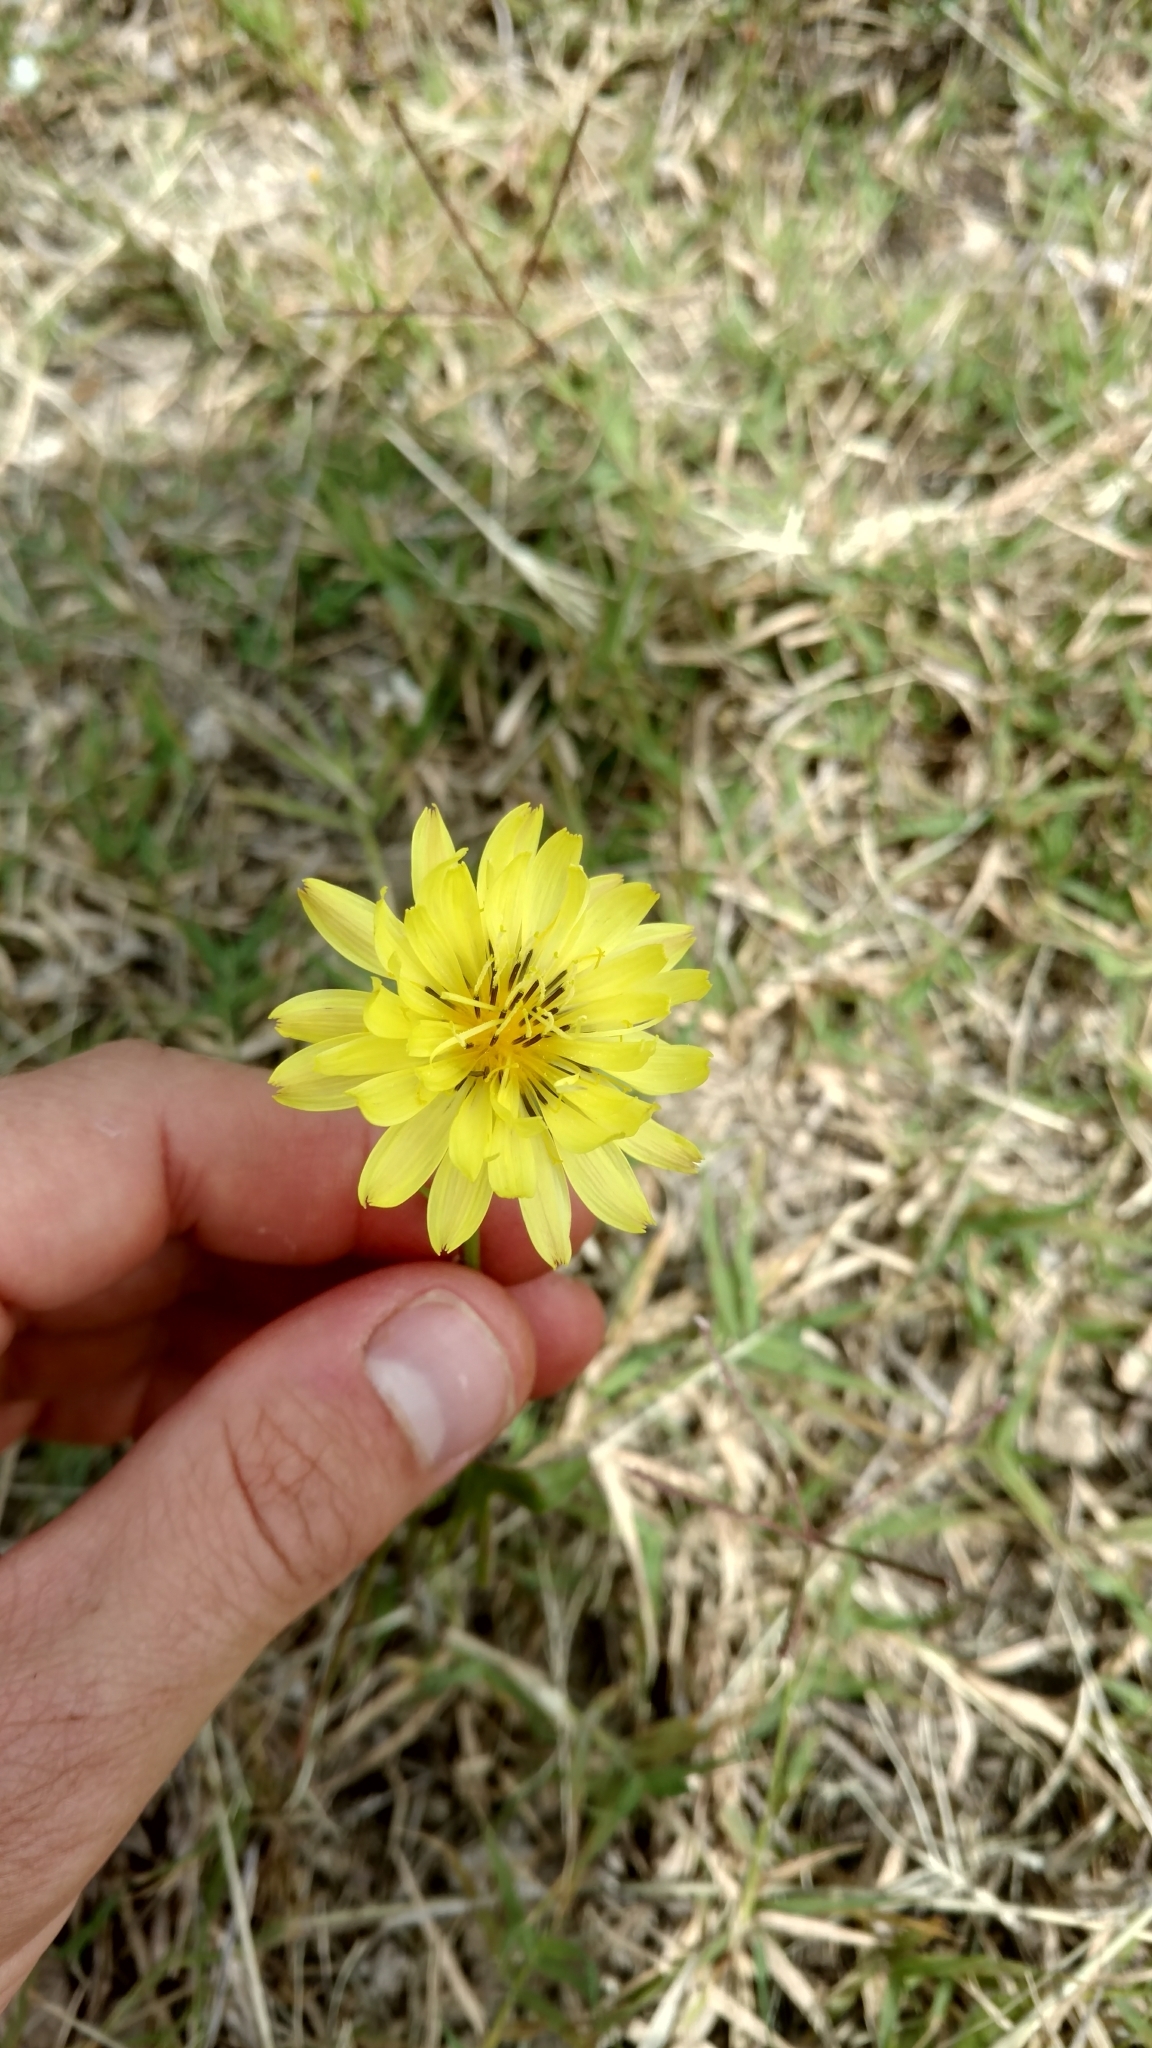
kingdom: Plantae
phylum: Tracheophyta
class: Magnoliopsida
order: Asterales
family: Asteraceae
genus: Pyrrhopappus
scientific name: Pyrrhopappus carolinianus
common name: Carolina desert-chicory
